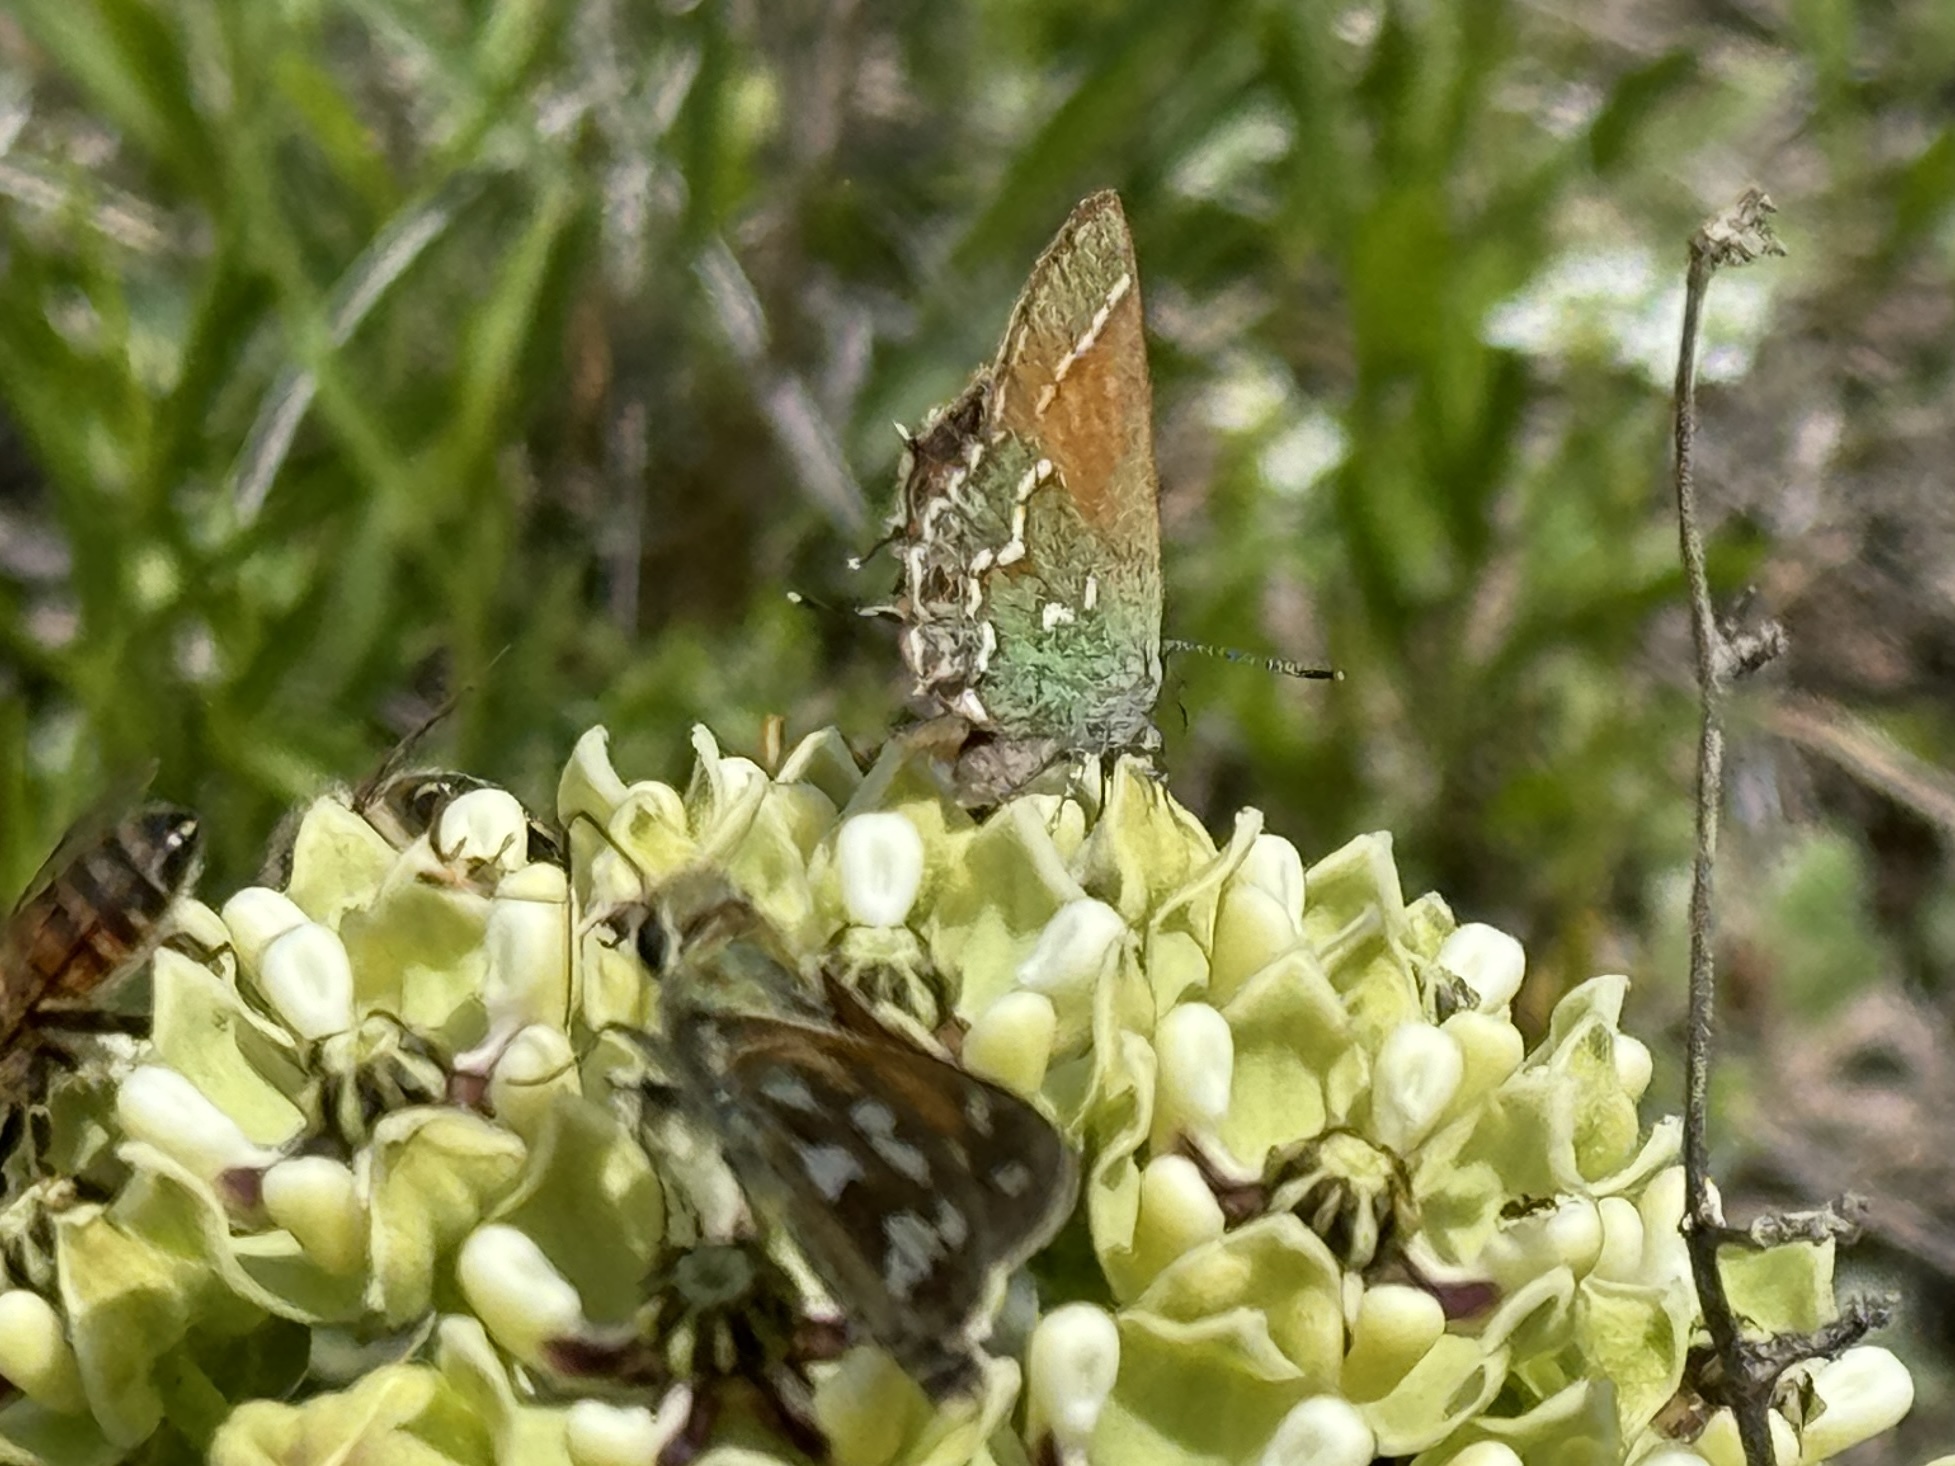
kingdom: Animalia
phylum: Arthropoda
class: Insecta
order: Lepidoptera
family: Lycaenidae
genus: Mitoura
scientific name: Mitoura gryneus
